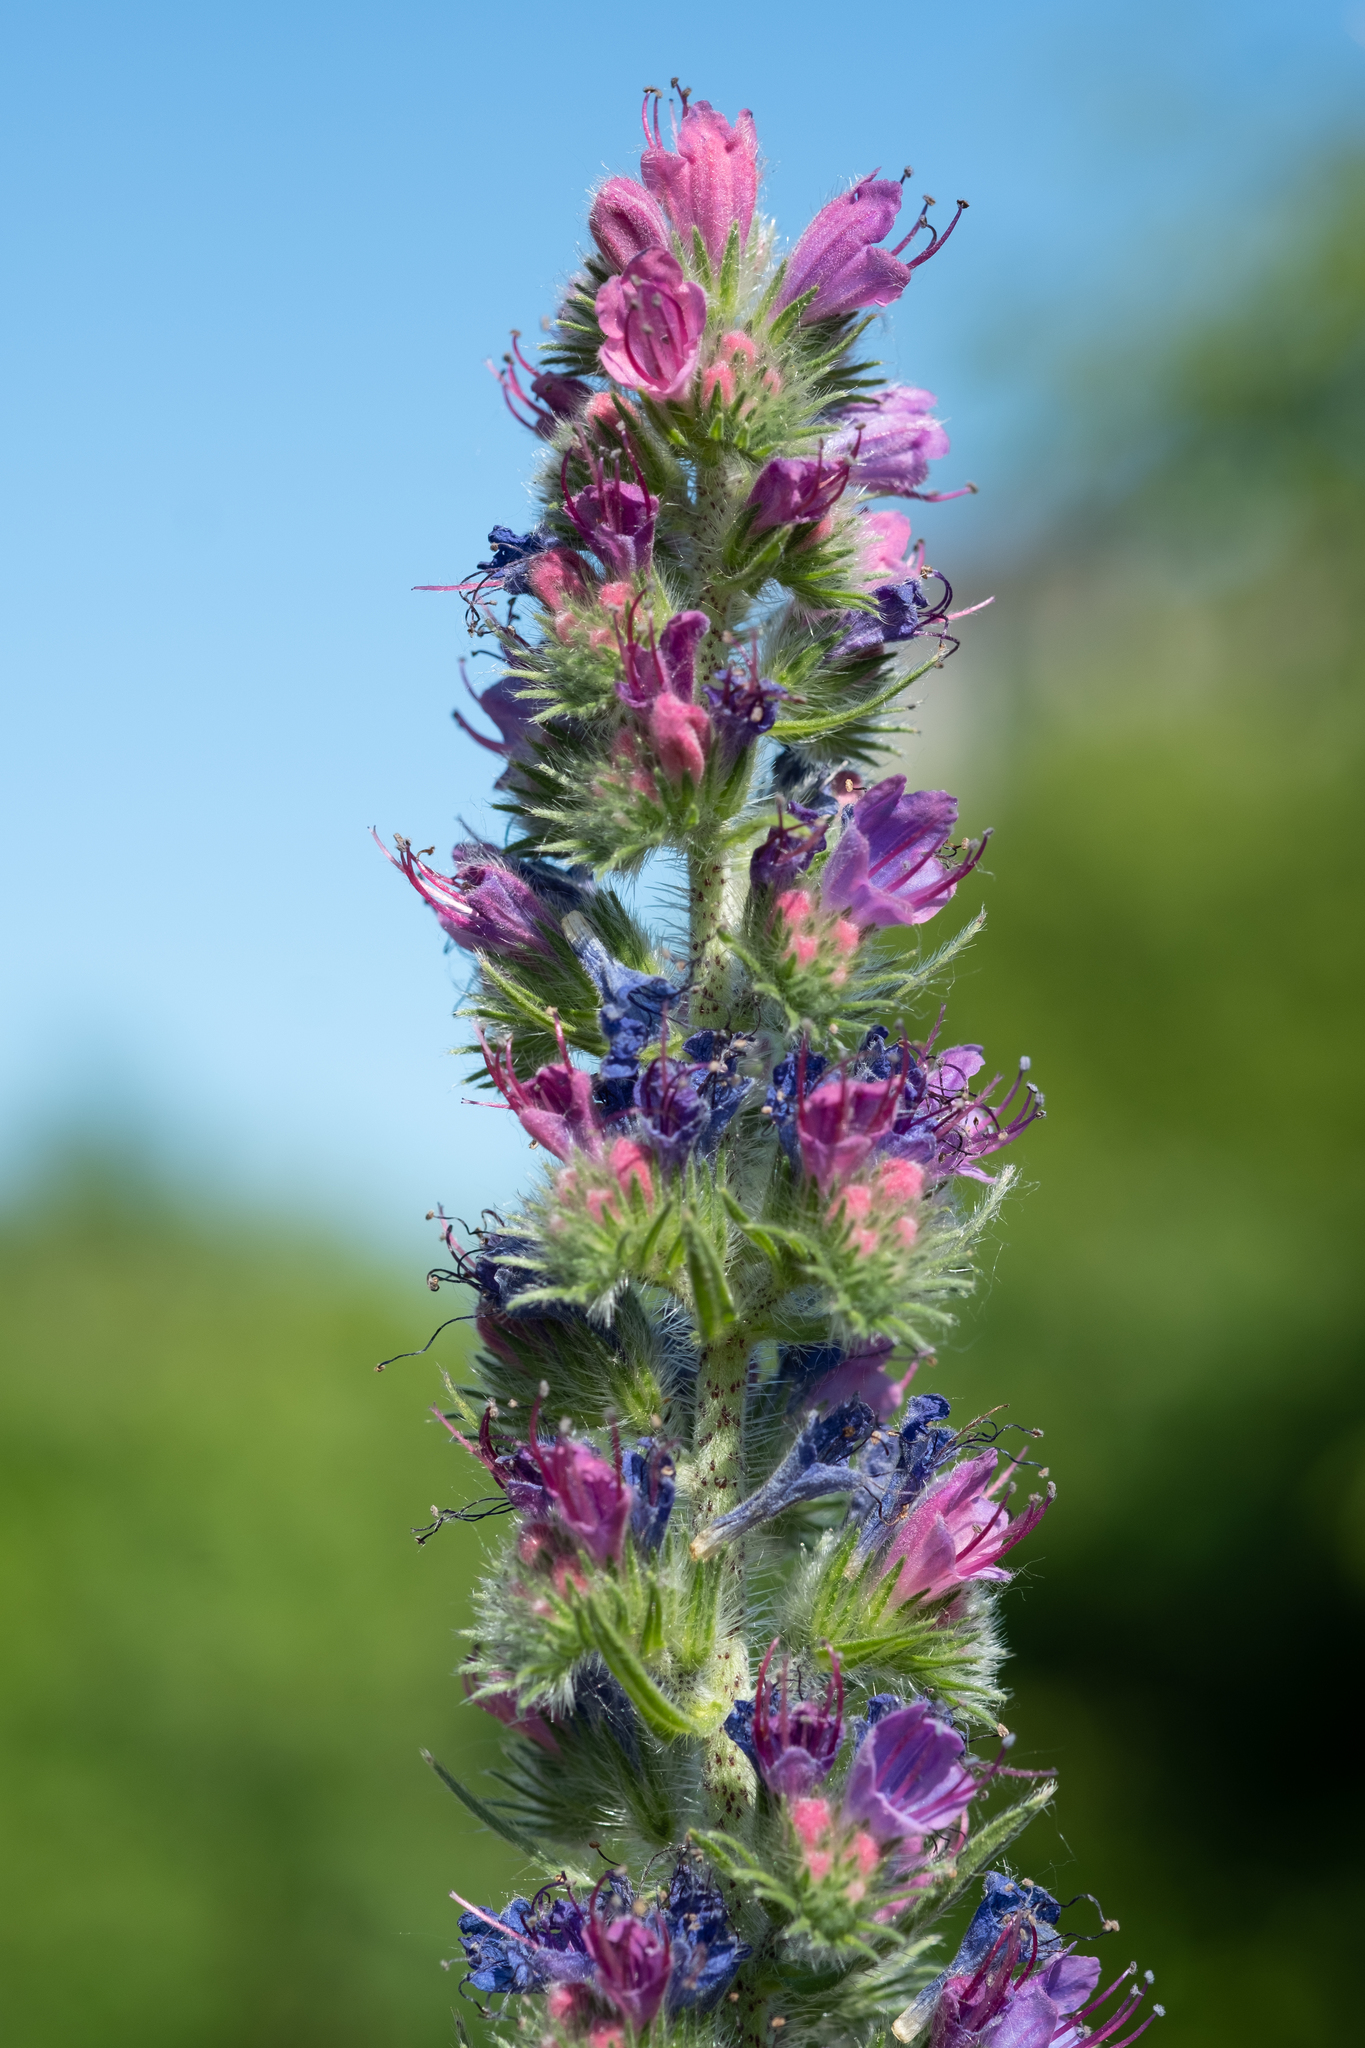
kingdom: Plantae
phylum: Tracheophyta
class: Magnoliopsida
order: Boraginales
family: Boraginaceae
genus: Echium
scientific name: Echium vulgare
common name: Common viper's bugloss
